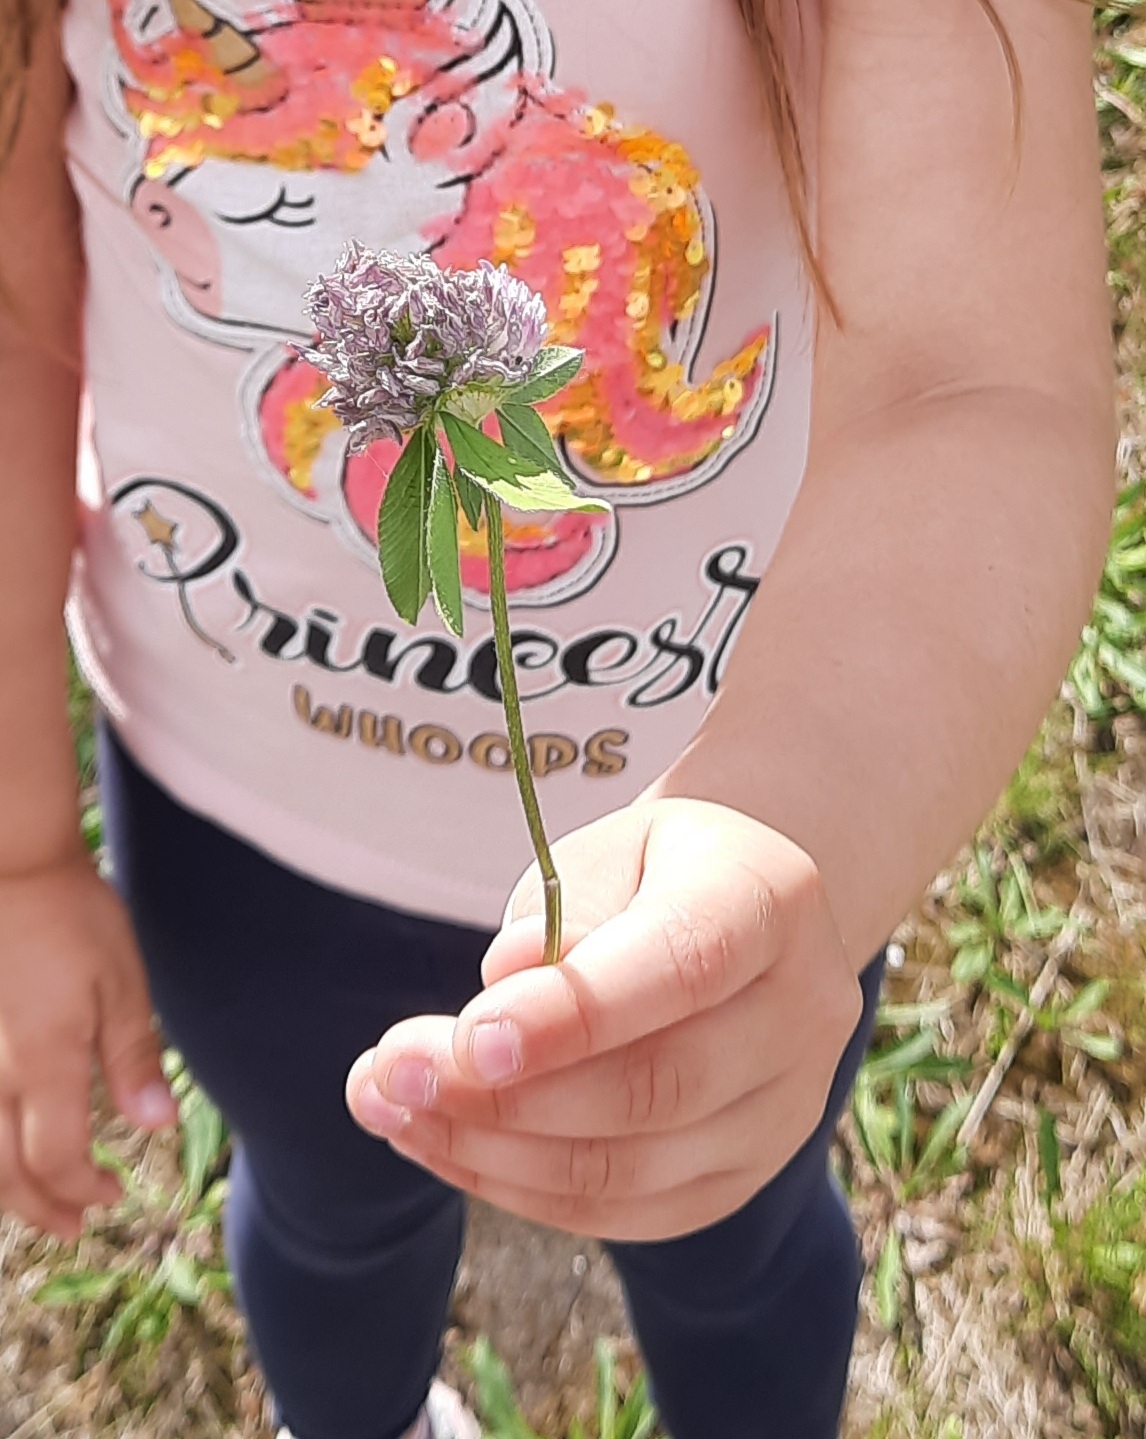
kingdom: Plantae
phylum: Tracheophyta
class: Magnoliopsida
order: Fabales
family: Fabaceae
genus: Trifolium
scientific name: Trifolium pratense
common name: Red clover
